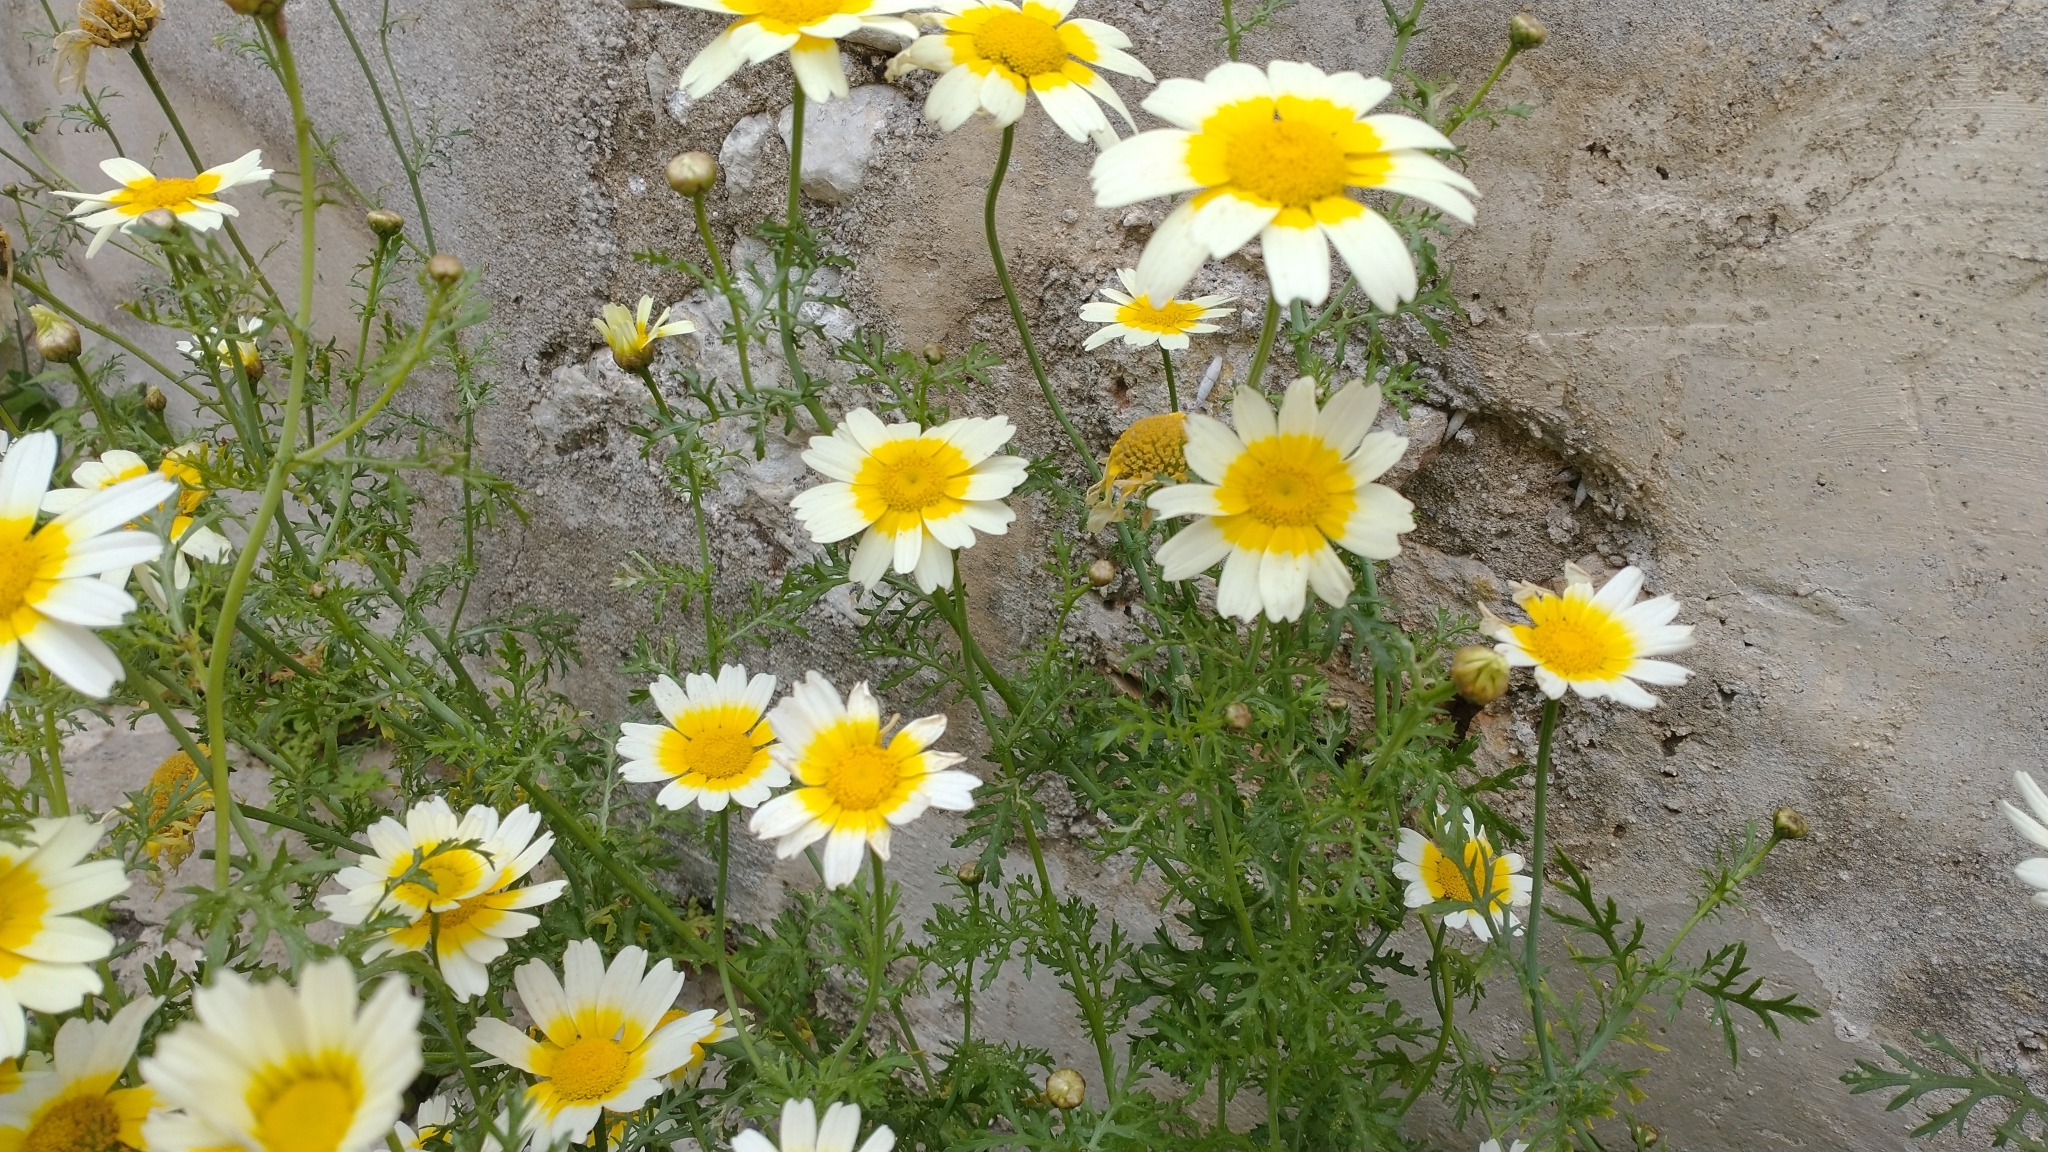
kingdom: Plantae
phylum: Tracheophyta
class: Magnoliopsida
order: Asterales
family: Asteraceae
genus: Glebionis
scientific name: Glebionis coronaria
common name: Crowndaisy
